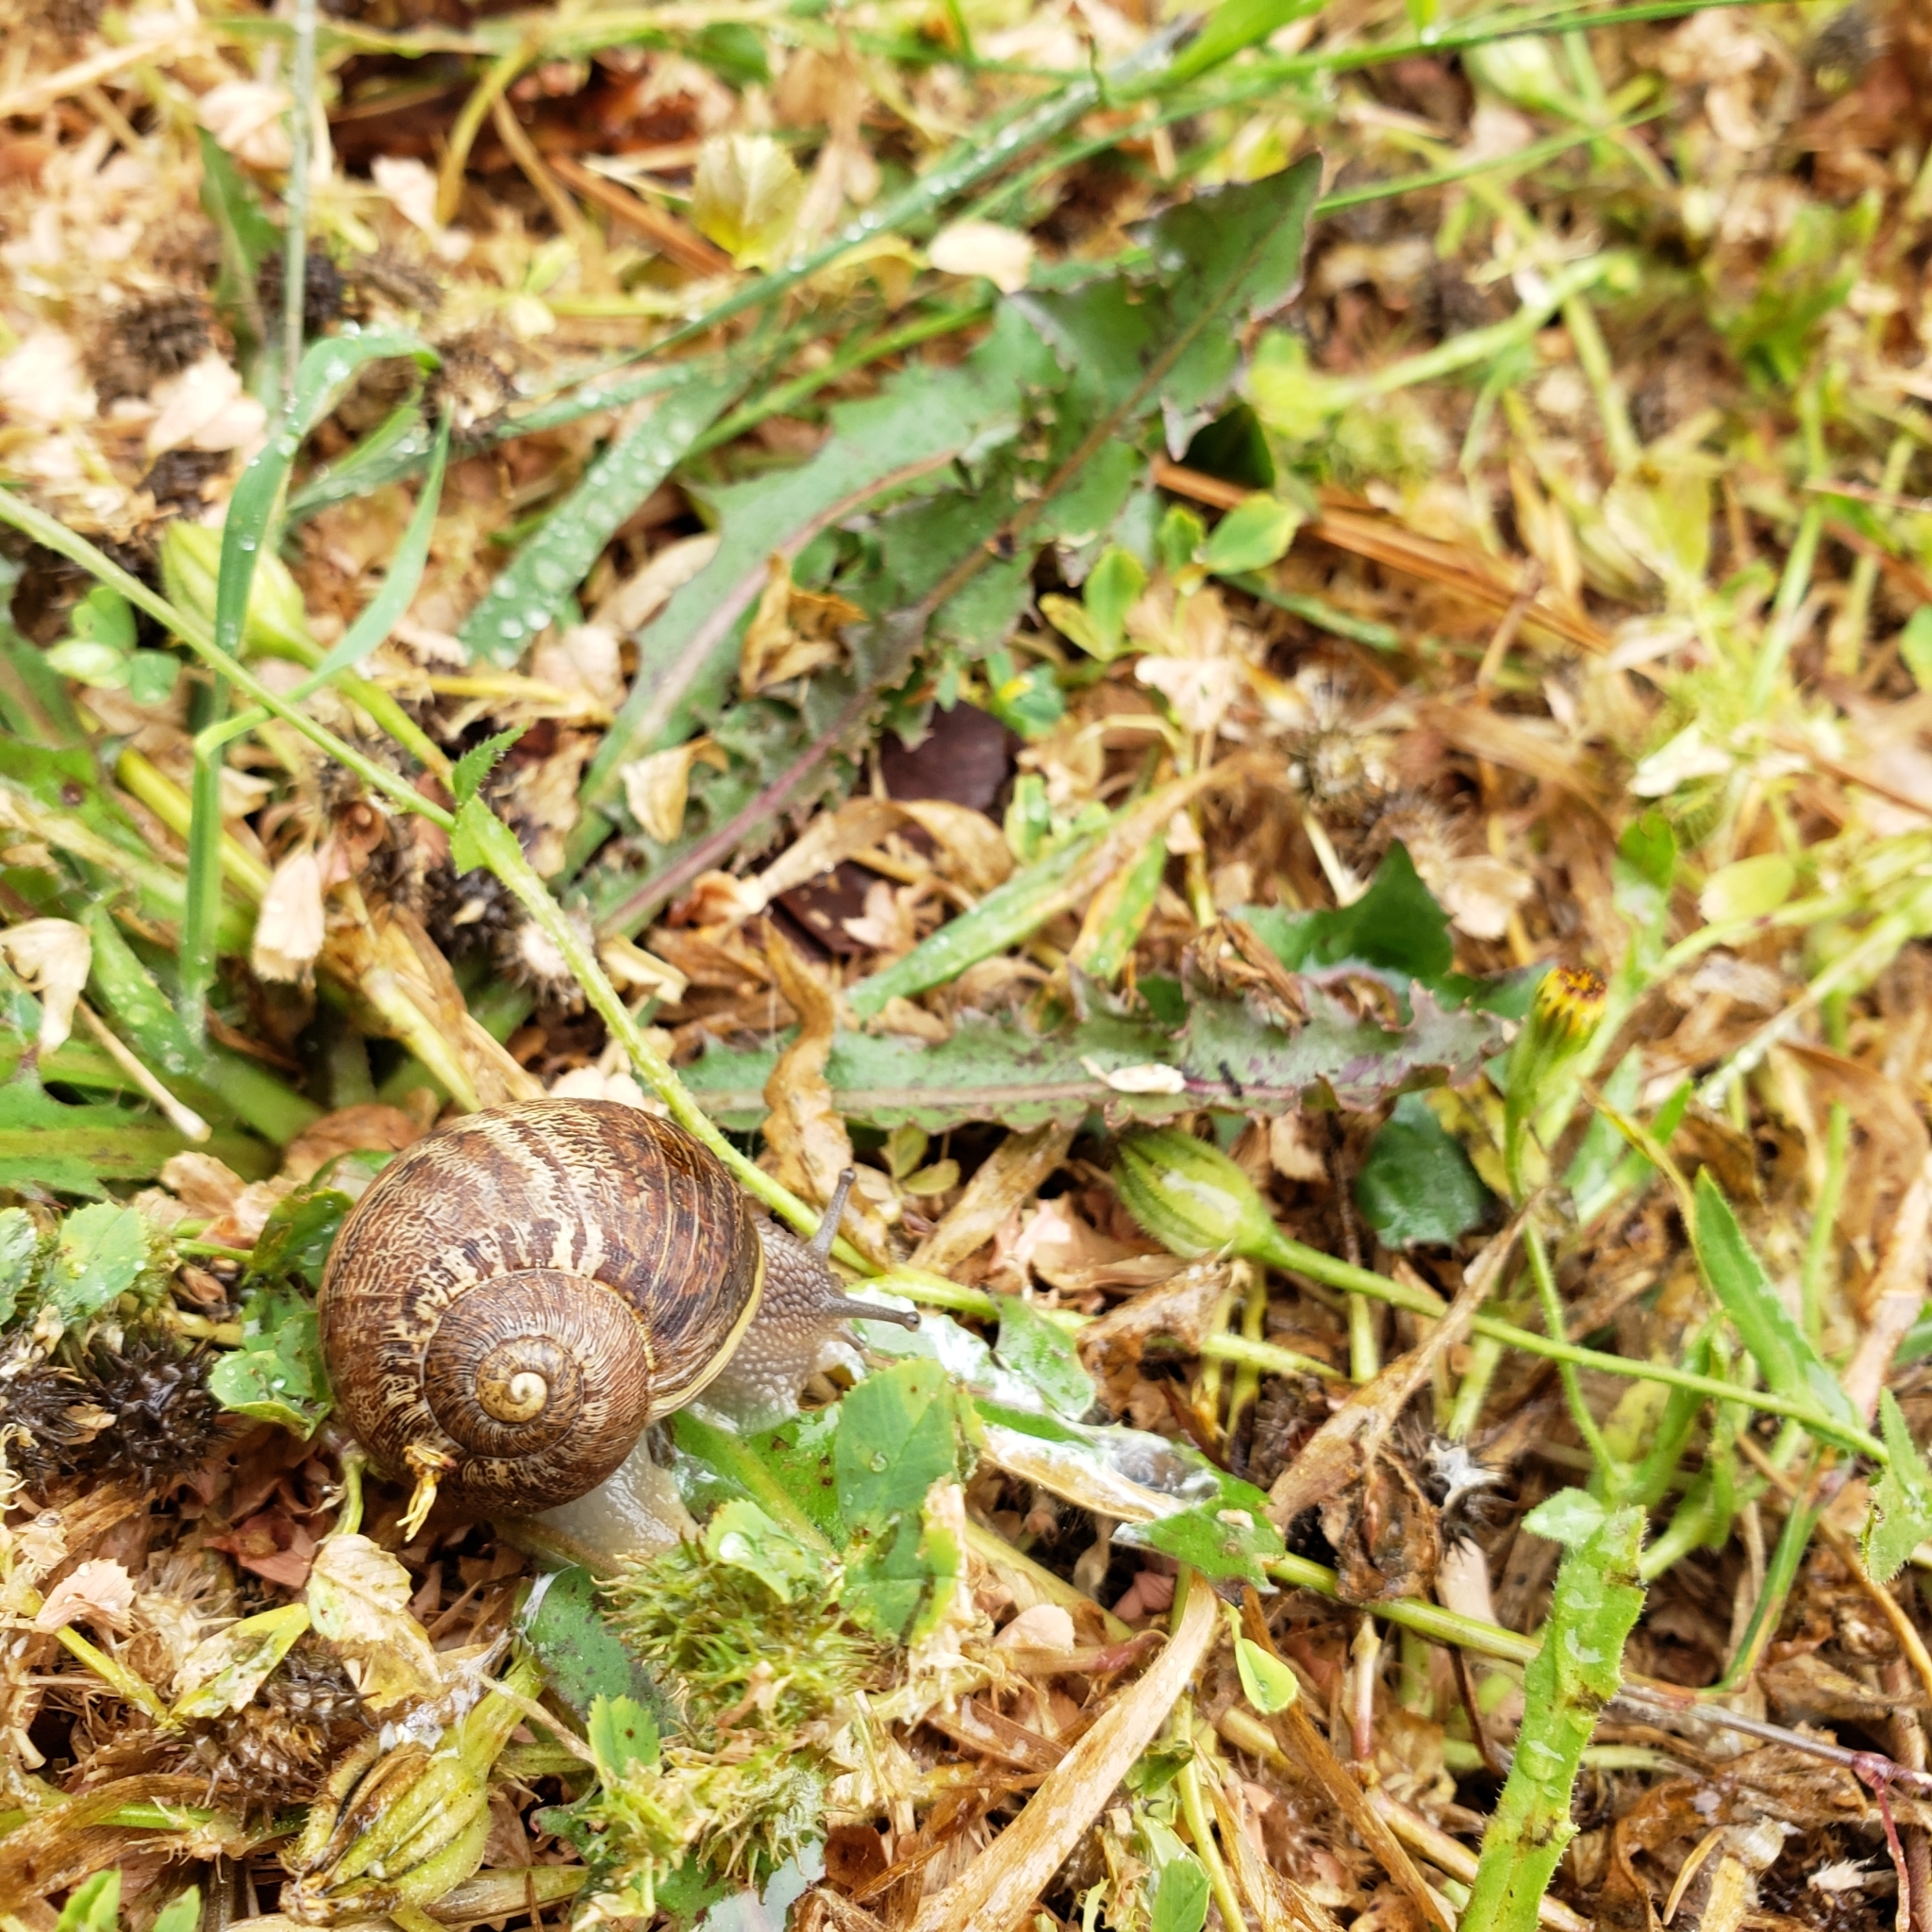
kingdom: Animalia
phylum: Mollusca
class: Gastropoda
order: Stylommatophora
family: Helicidae
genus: Cornu
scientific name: Cornu aspersum
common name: Brown garden snail
